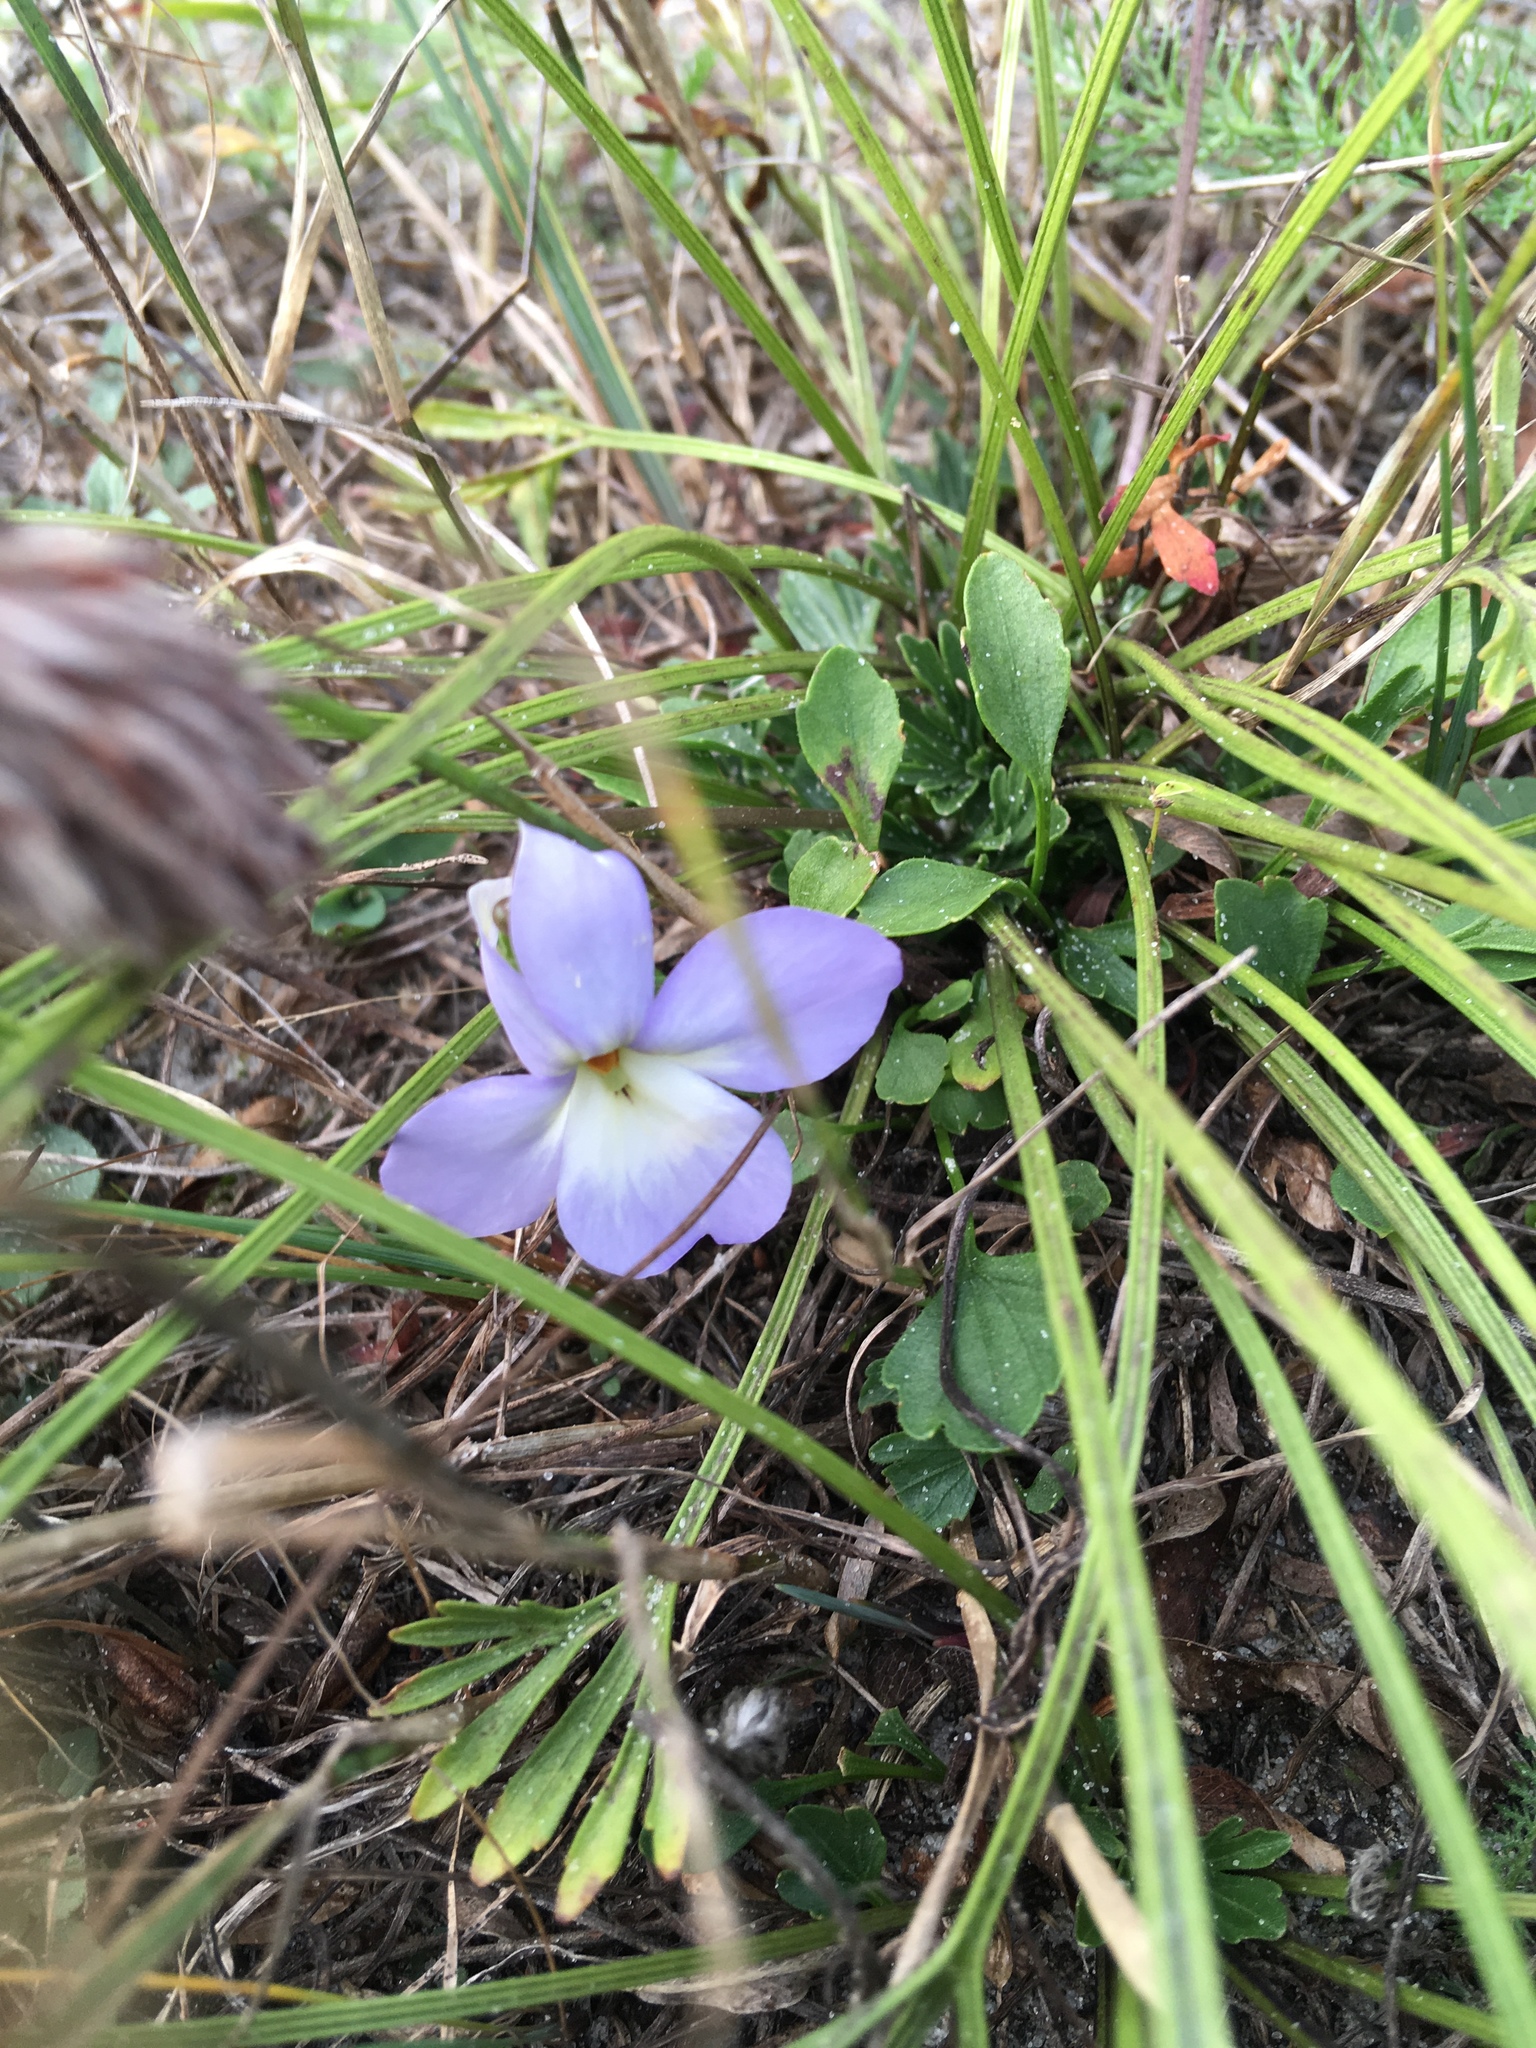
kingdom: Plantae
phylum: Tracheophyta
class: Magnoliopsida
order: Malpighiales
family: Violaceae
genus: Viola
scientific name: Viola pedata
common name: Pansy violet
